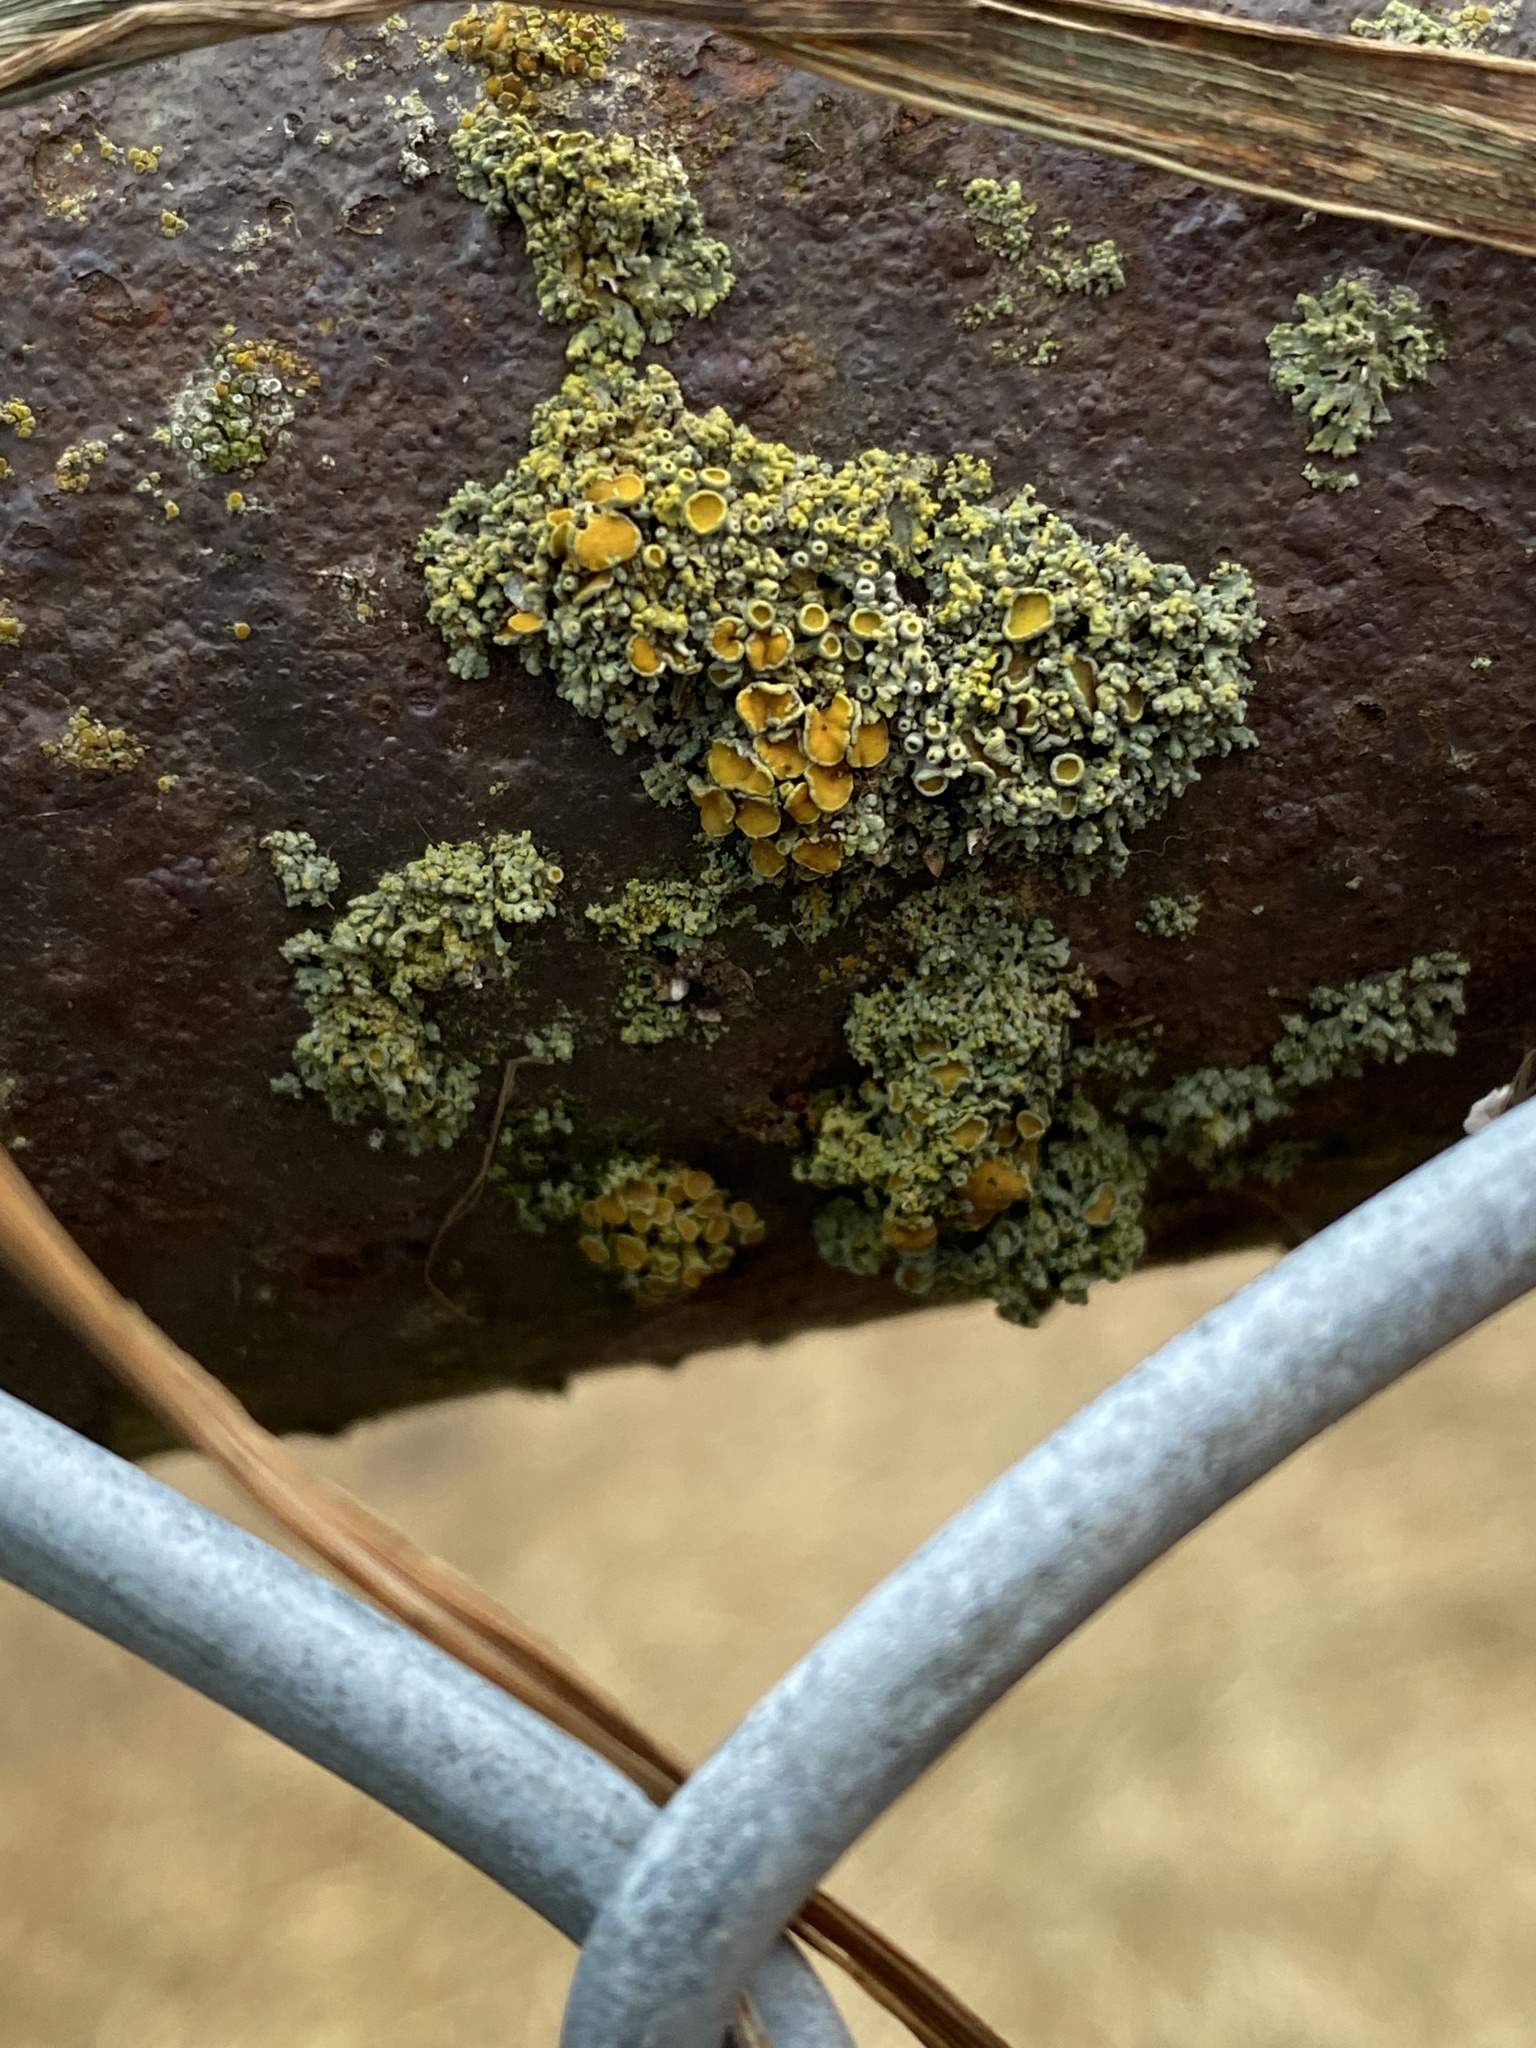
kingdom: Fungi
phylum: Ascomycota
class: Lecanoromycetes
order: Teloschistales
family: Teloschistaceae
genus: Polycauliona
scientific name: Polycauliona polycarpa
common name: Pin-cushion sunburst lichen
